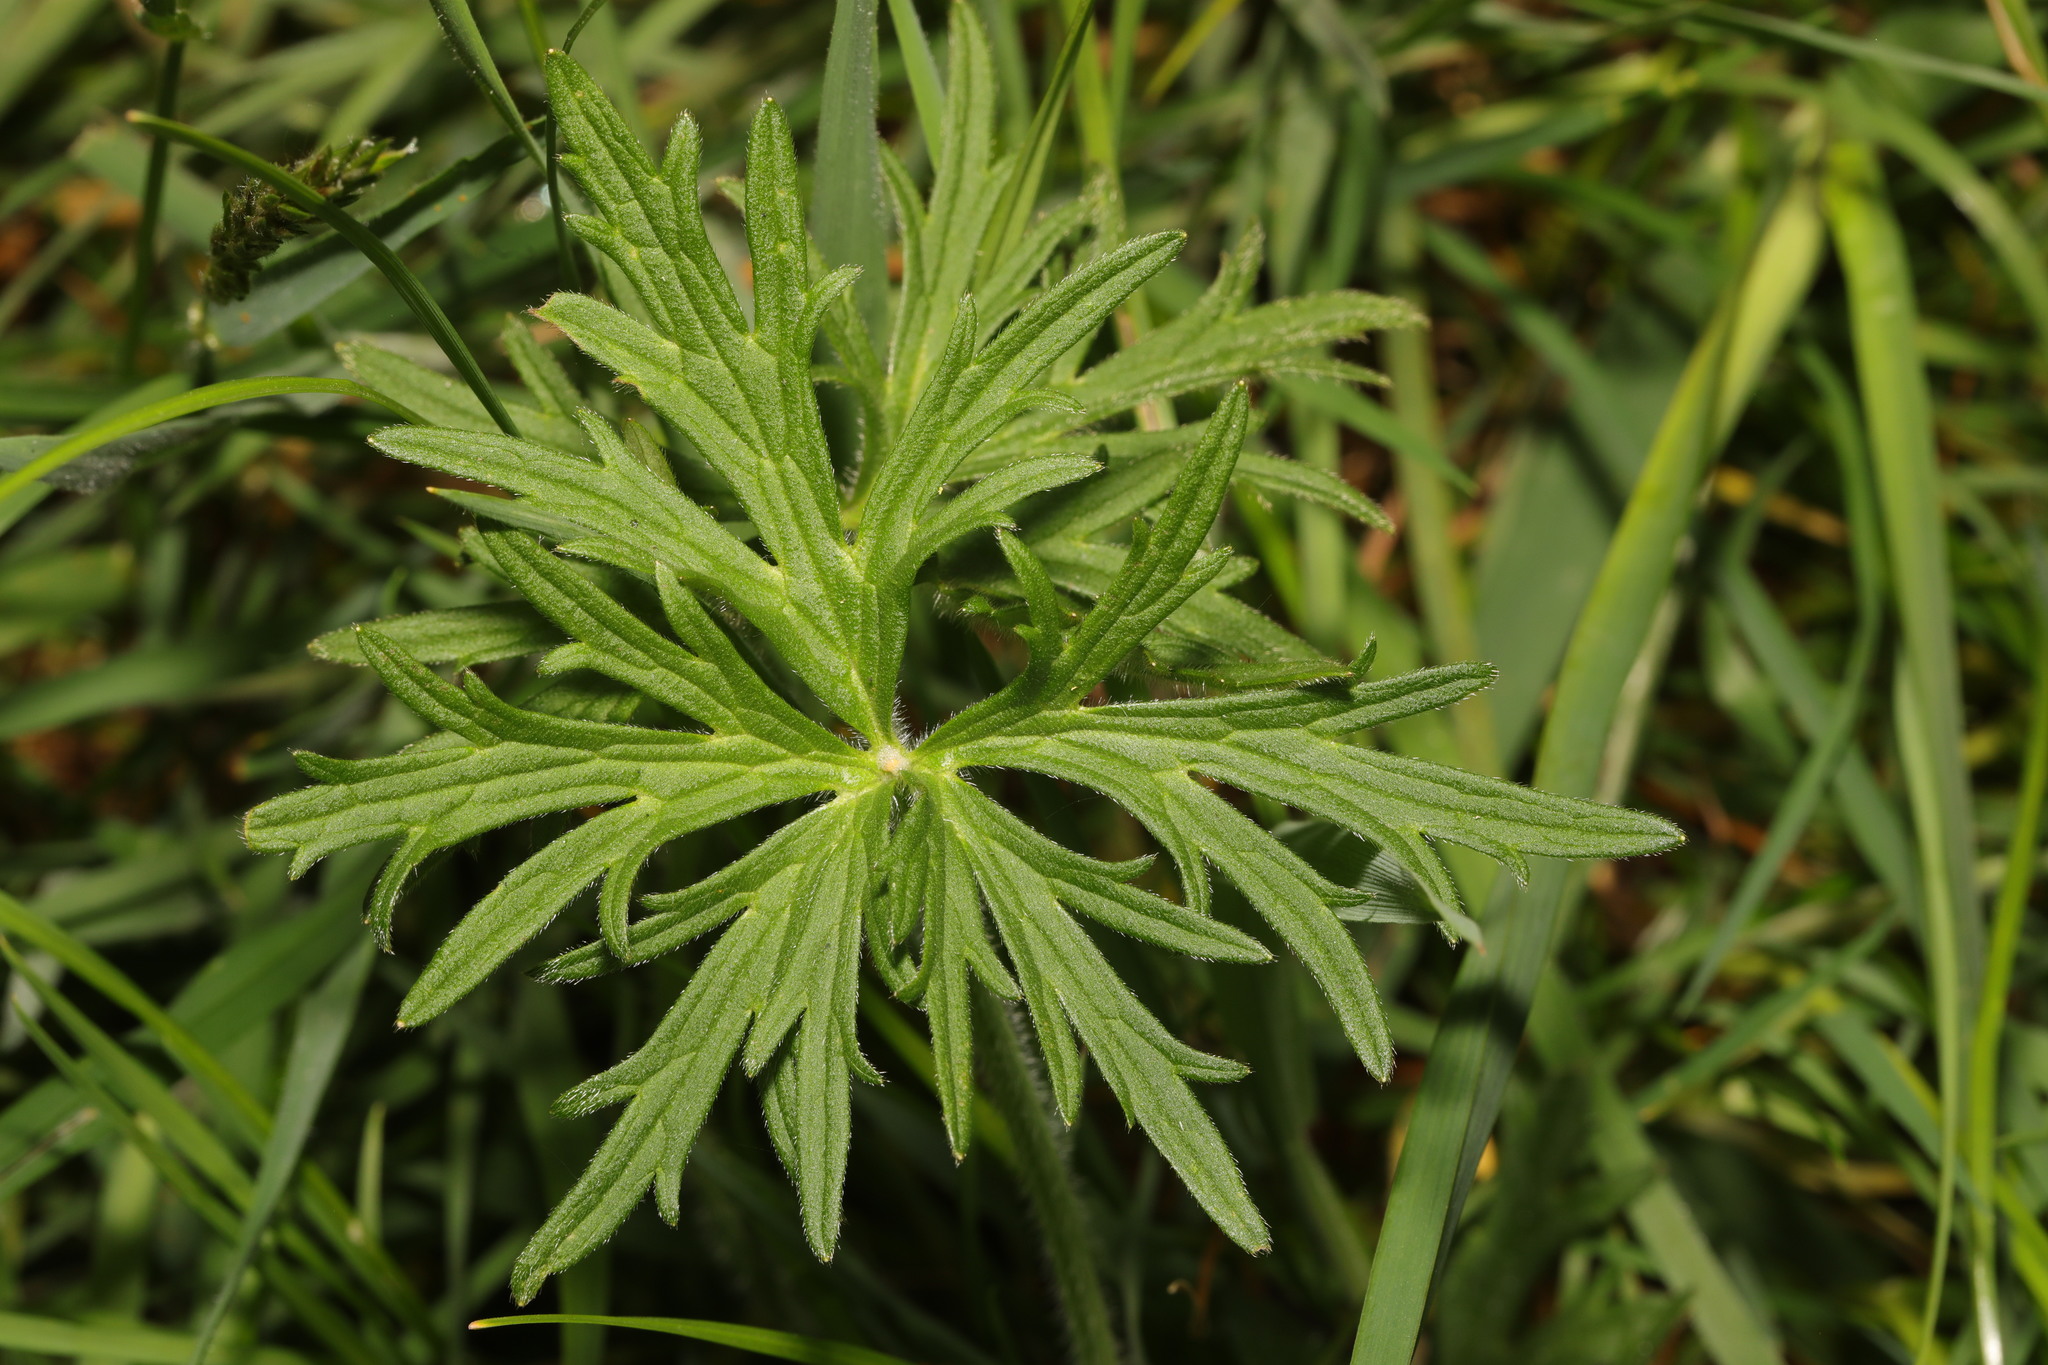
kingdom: Plantae
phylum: Tracheophyta
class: Magnoliopsida
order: Ranunculales
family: Ranunculaceae
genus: Ranunculus
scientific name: Ranunculus acris
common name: Meadow buttercup
